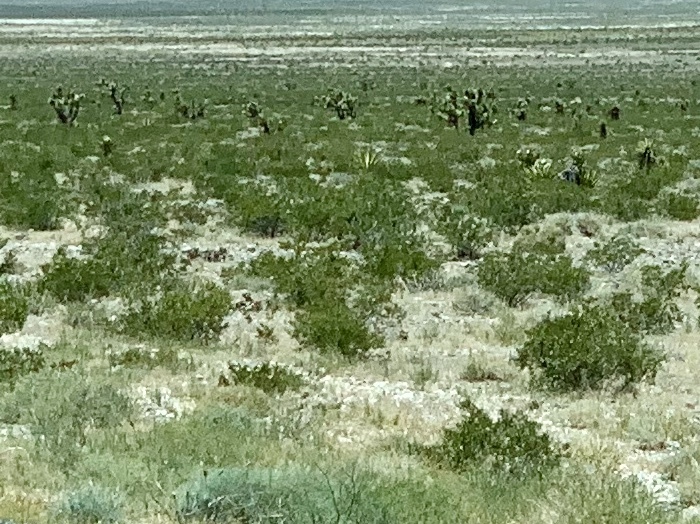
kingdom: Plantae
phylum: Tracheophyta
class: Magnoliopsida
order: Zygophyllales
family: Zygophyllaceae
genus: Larrea
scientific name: Larrea tridentata
